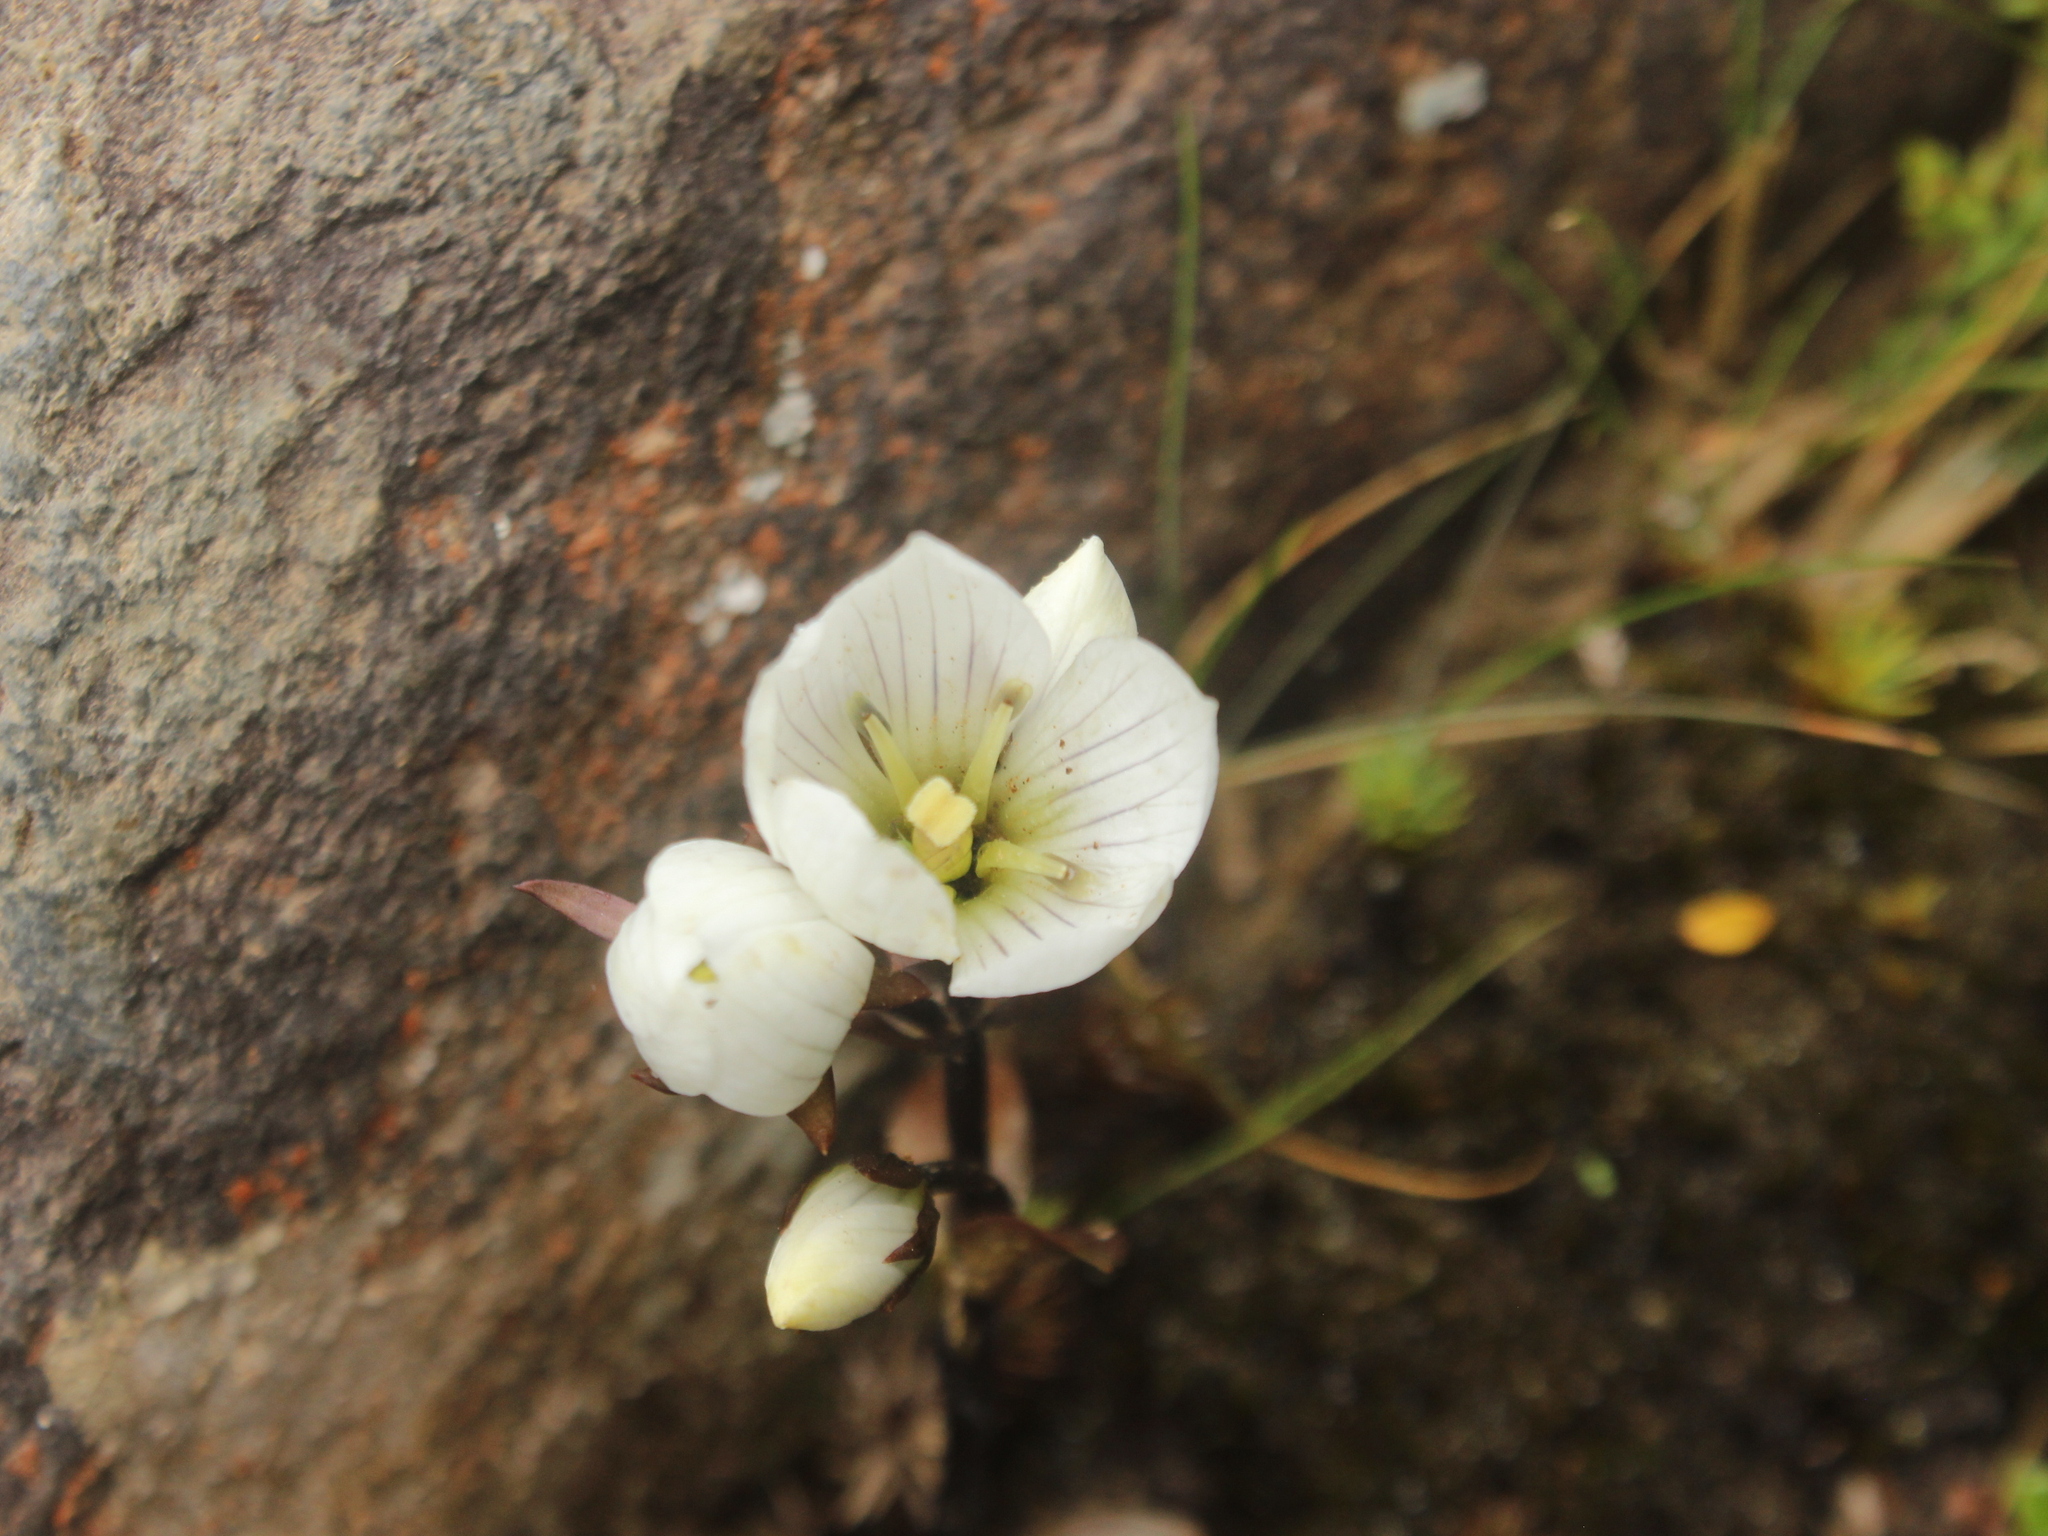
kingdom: Plantae
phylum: Tracheophyta
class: Magnoliopsida
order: Gentianales
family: Gentianaceae
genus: Gentianella
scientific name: Gentianella bellidifolia
